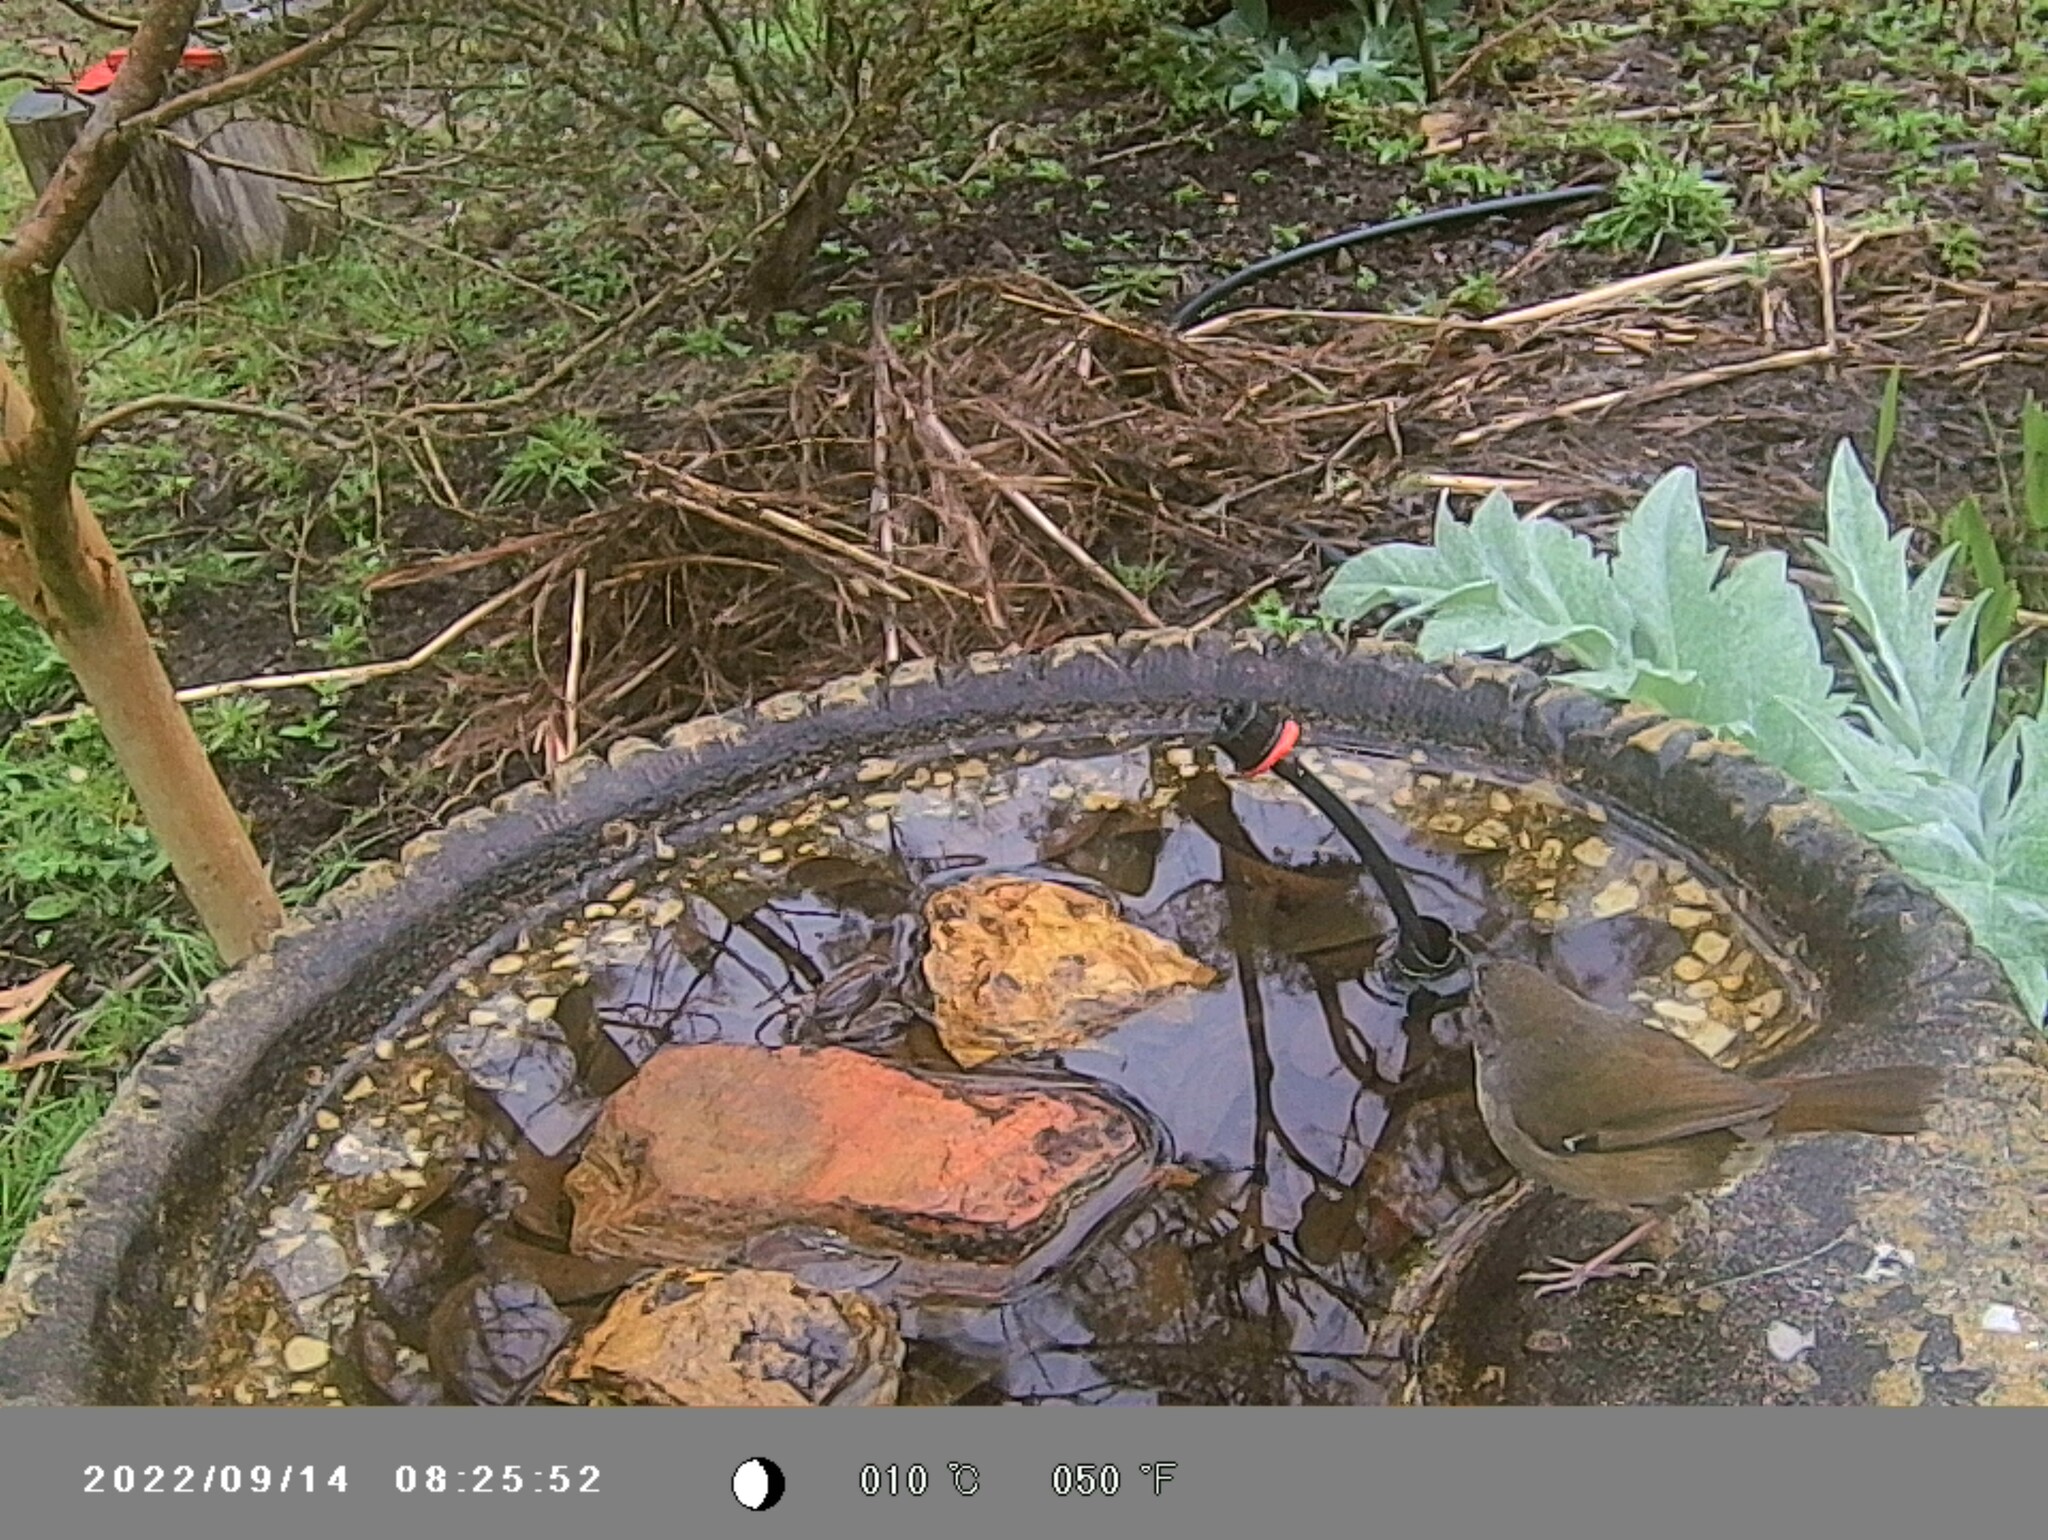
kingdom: Animalia
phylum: Chordata
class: Aves
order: Passeriformes
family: Acanthizidae
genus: Sericornis
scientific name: Sericornis frontalis
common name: White-browed scrubwren
